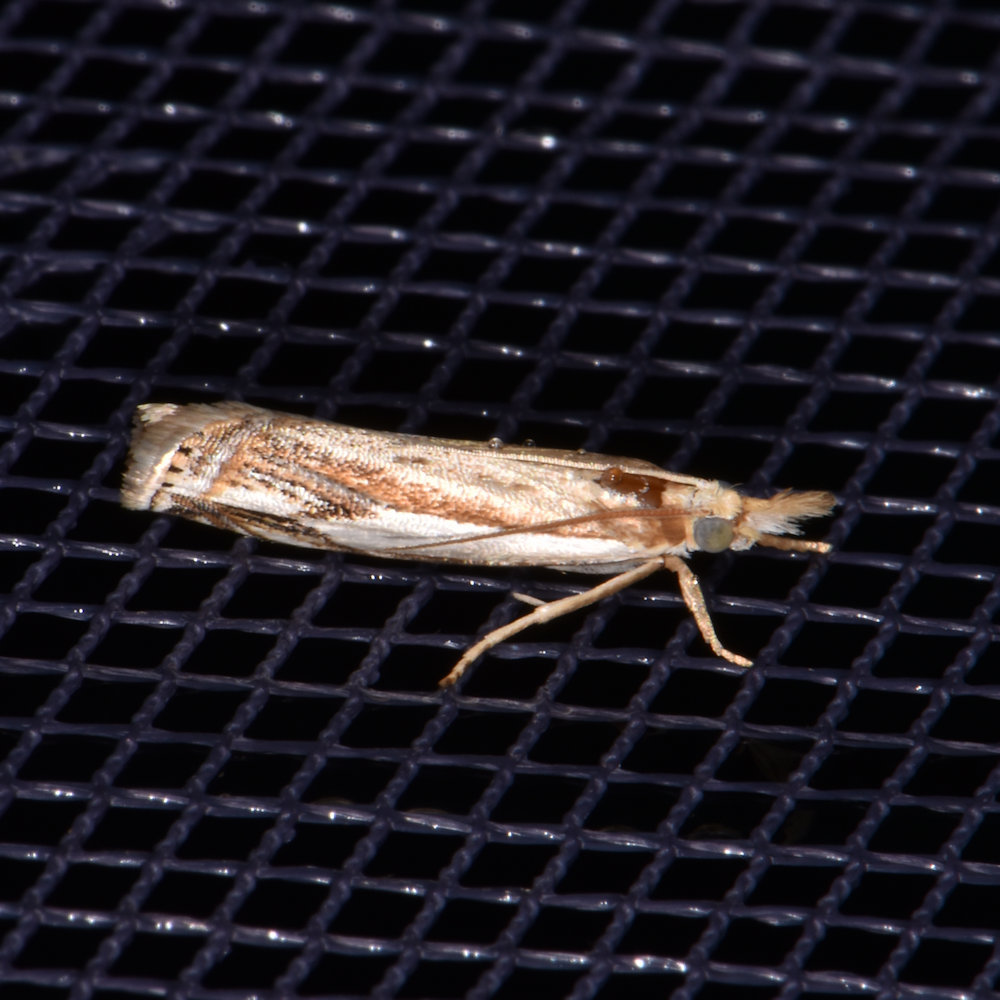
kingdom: Animalia
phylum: Arthropoda
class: Insecta
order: Lepidoptera
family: Crambidae
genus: Crambus
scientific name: Crambus agitatellus
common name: Double-banded grass-veneer
